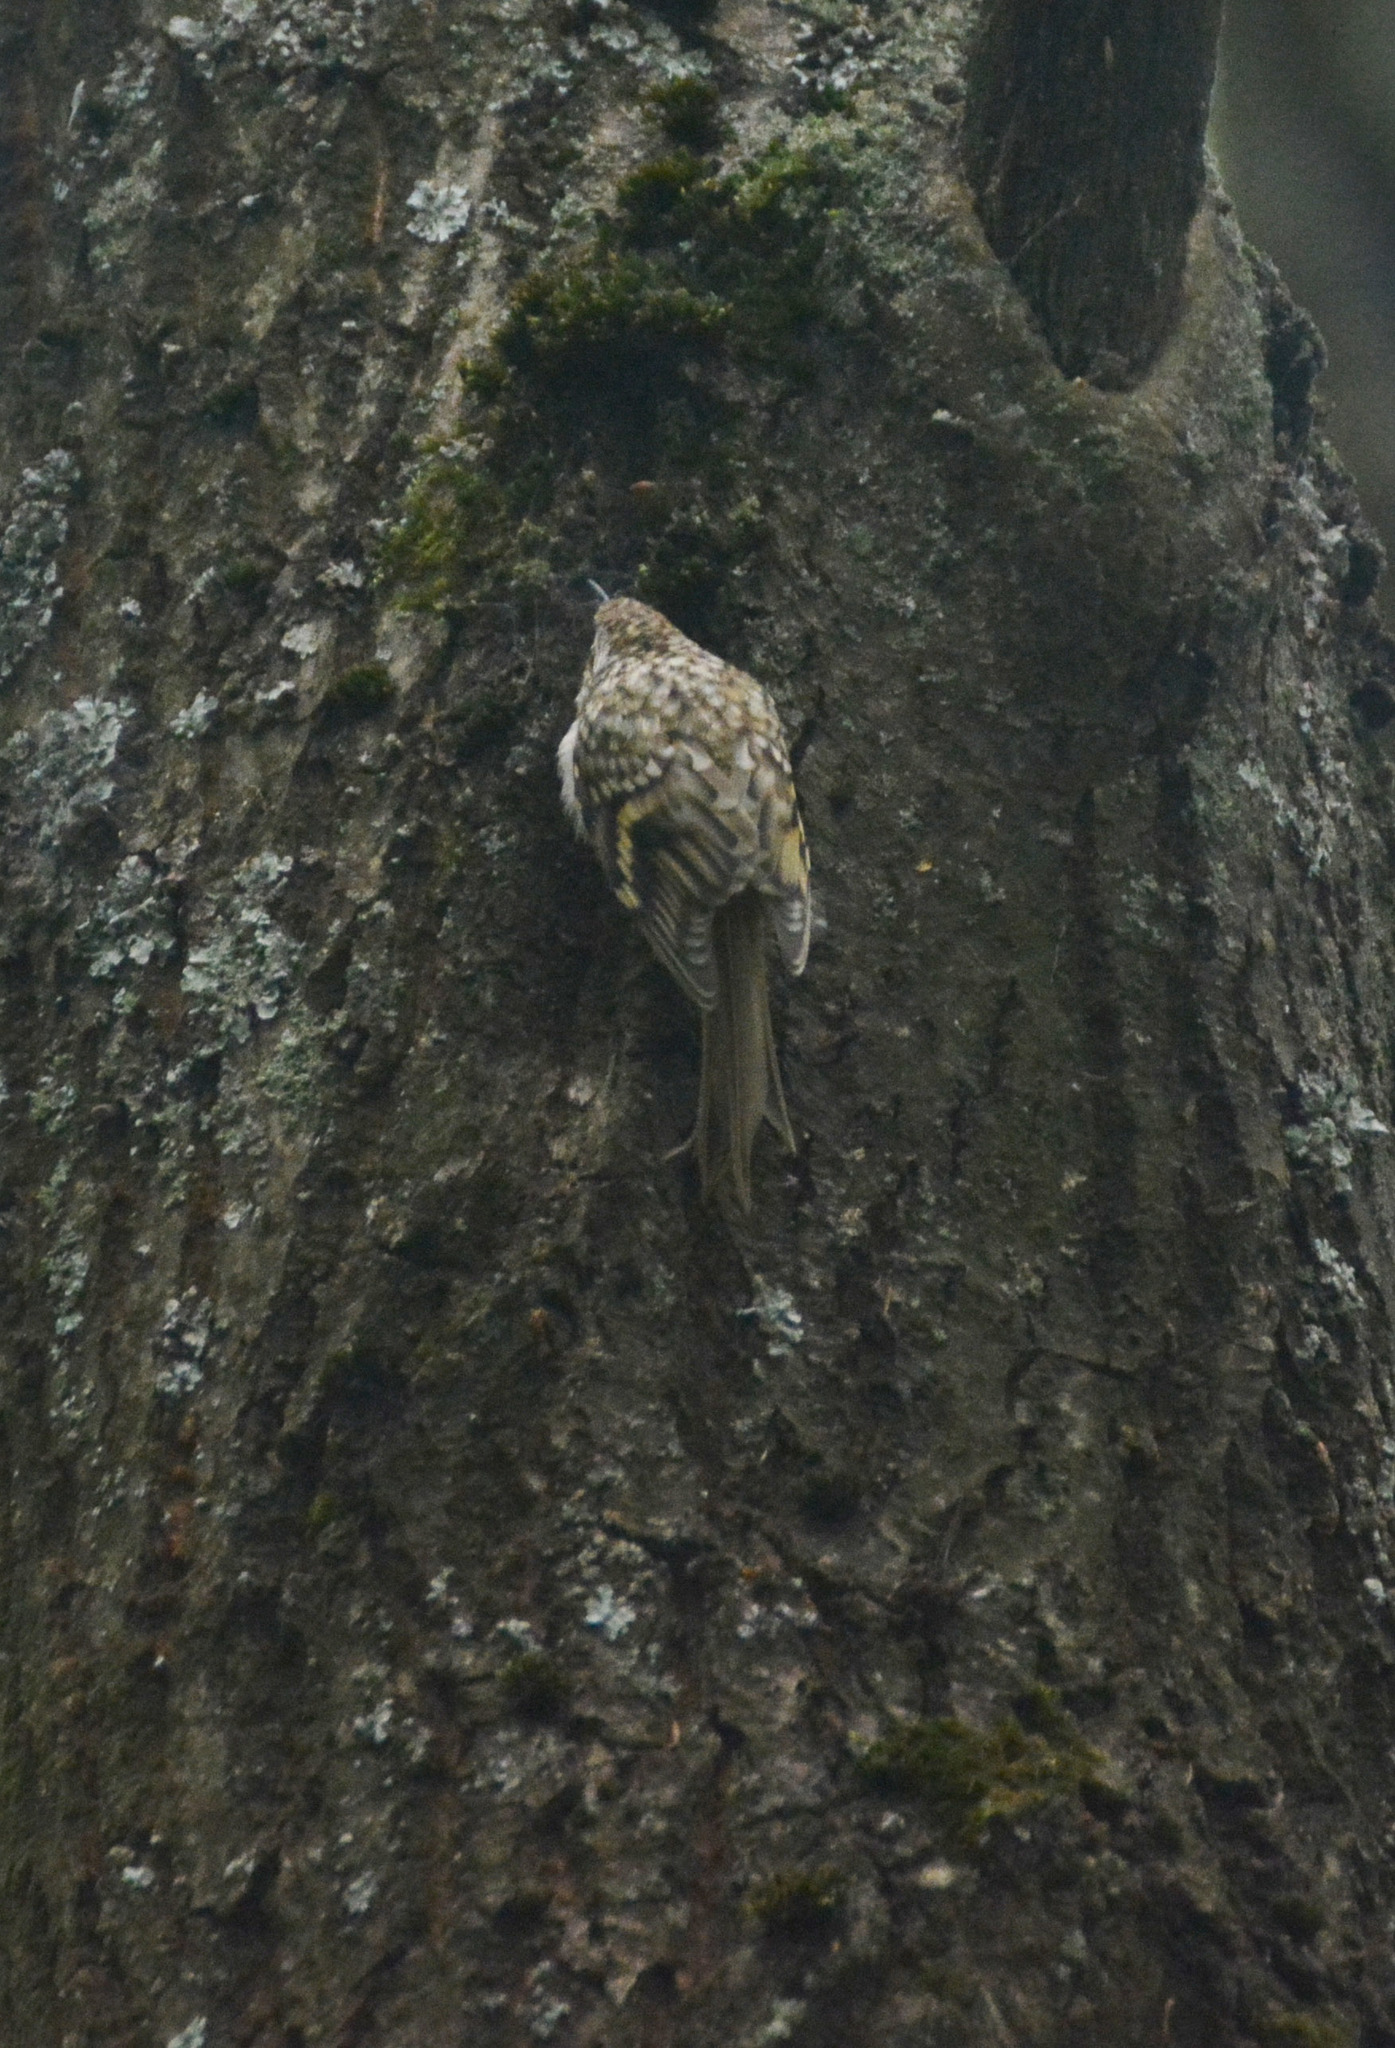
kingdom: Animalia
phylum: Chordata
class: Aves
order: Passeriformes
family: Certhiidae
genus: Certhia
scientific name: Certhia familiaris
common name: Eurasian treecreeper
